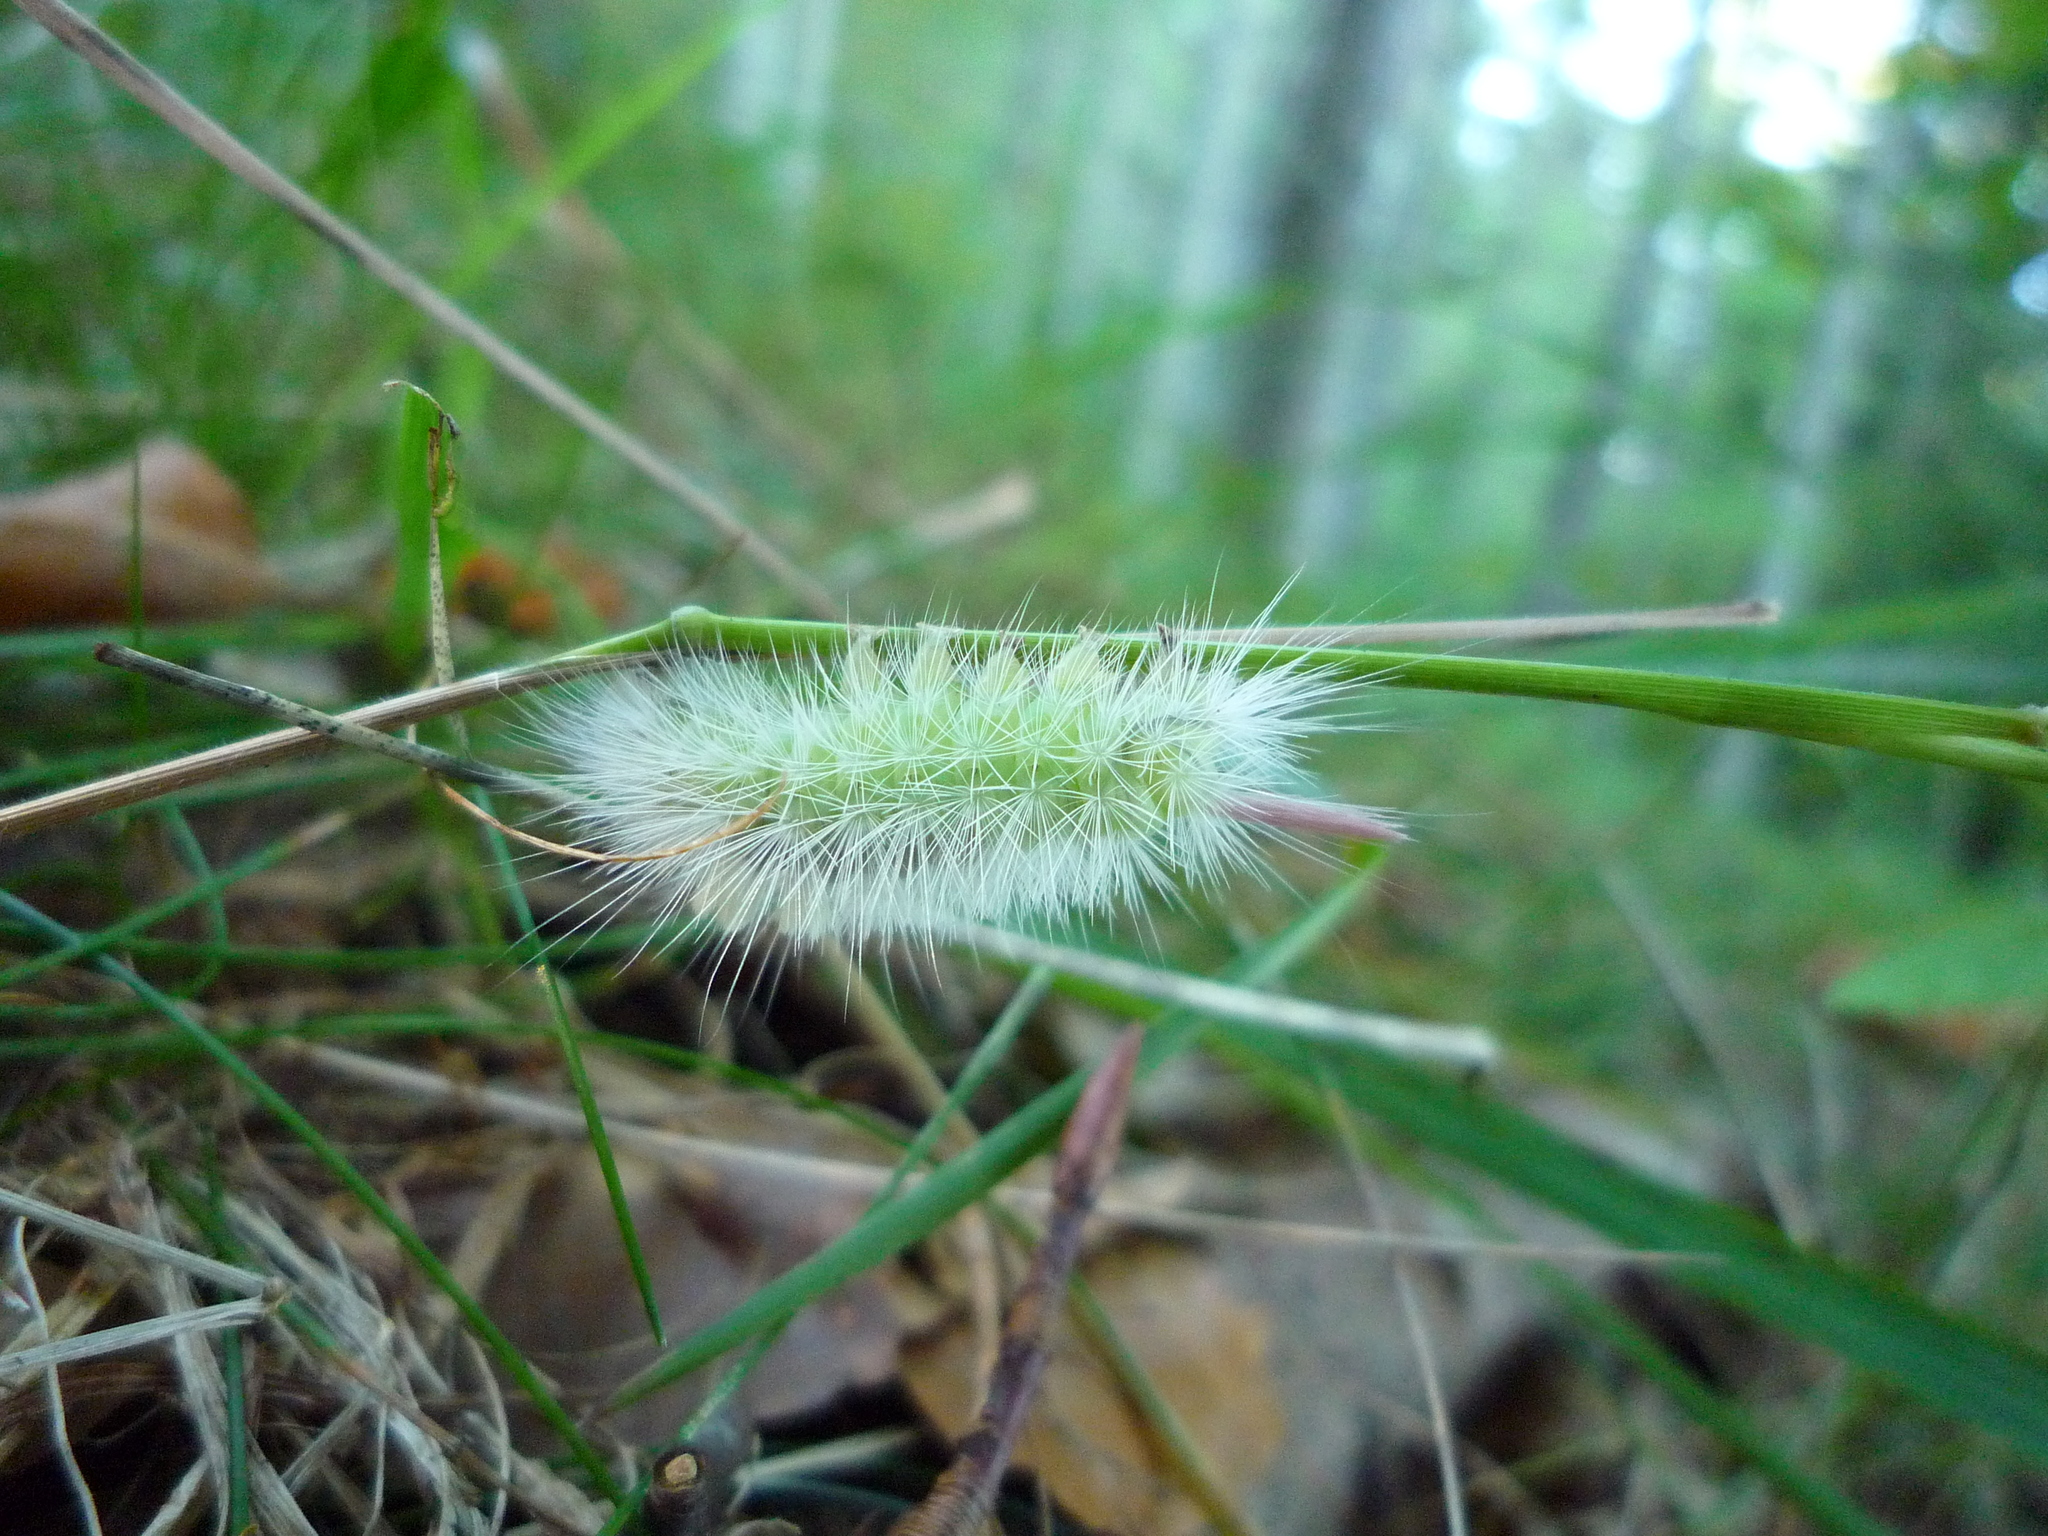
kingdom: Animalia
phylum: Arthropoda
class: Insecta
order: Lepidoptera
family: Erebidae
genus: Calliteara
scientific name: Calliteara pudibunda
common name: Pale tussock
